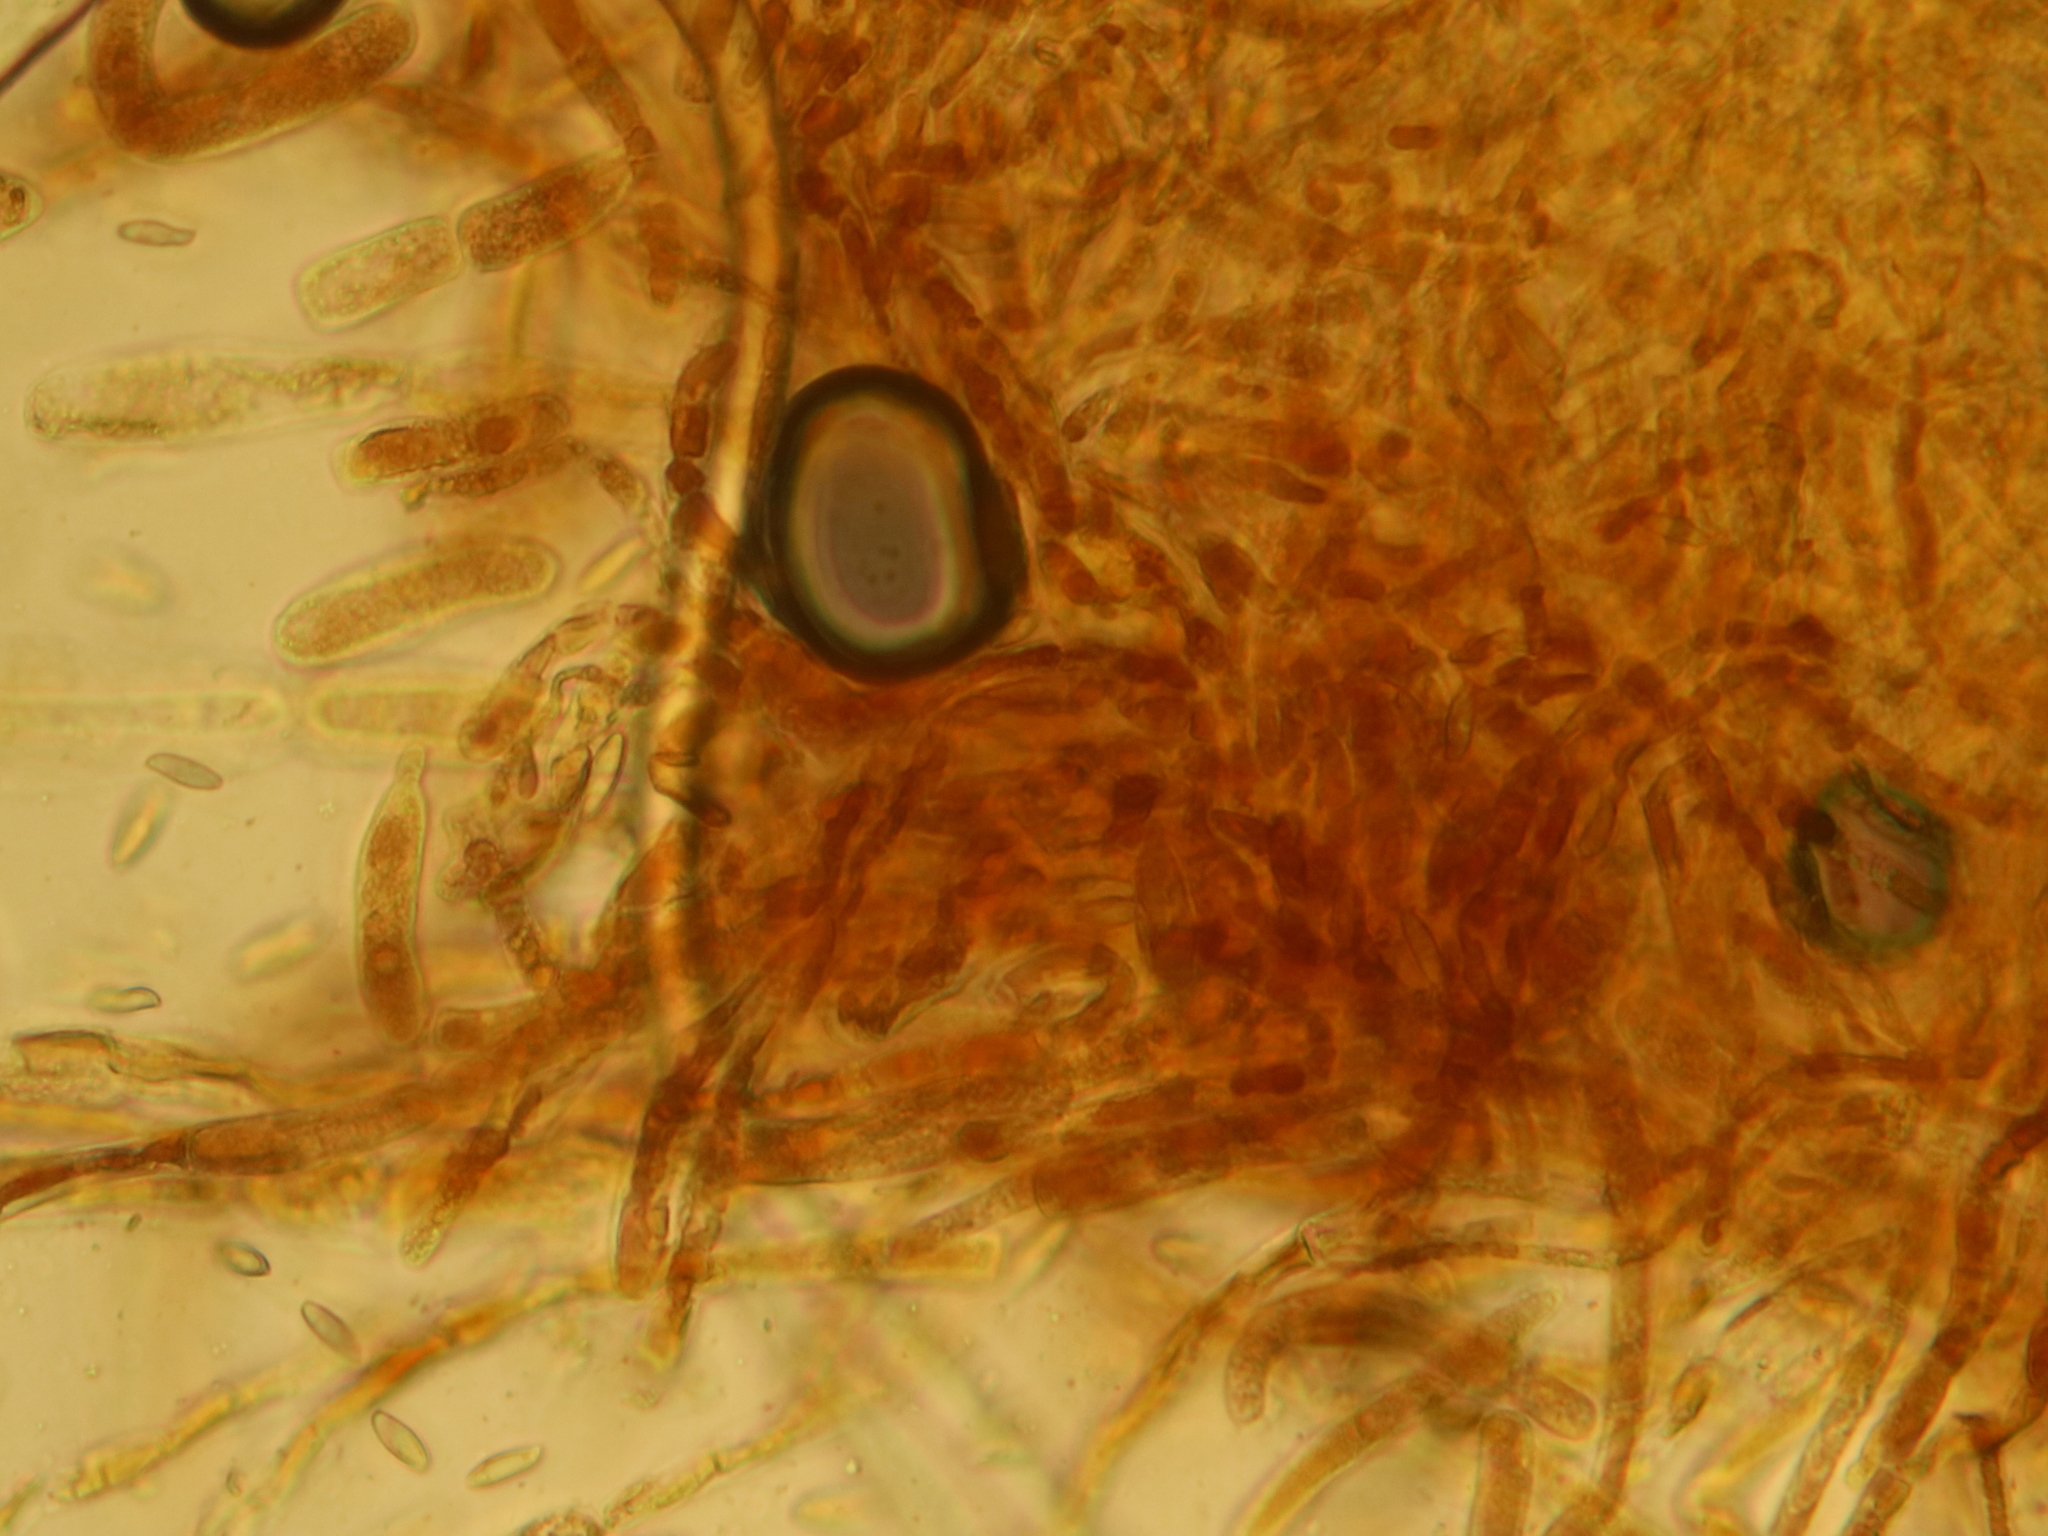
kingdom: Fungi
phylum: Basidiomycota
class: Agaricomycetes
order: Boletales
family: Boletaceae
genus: Leccinum
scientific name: Leccinum piceinum
